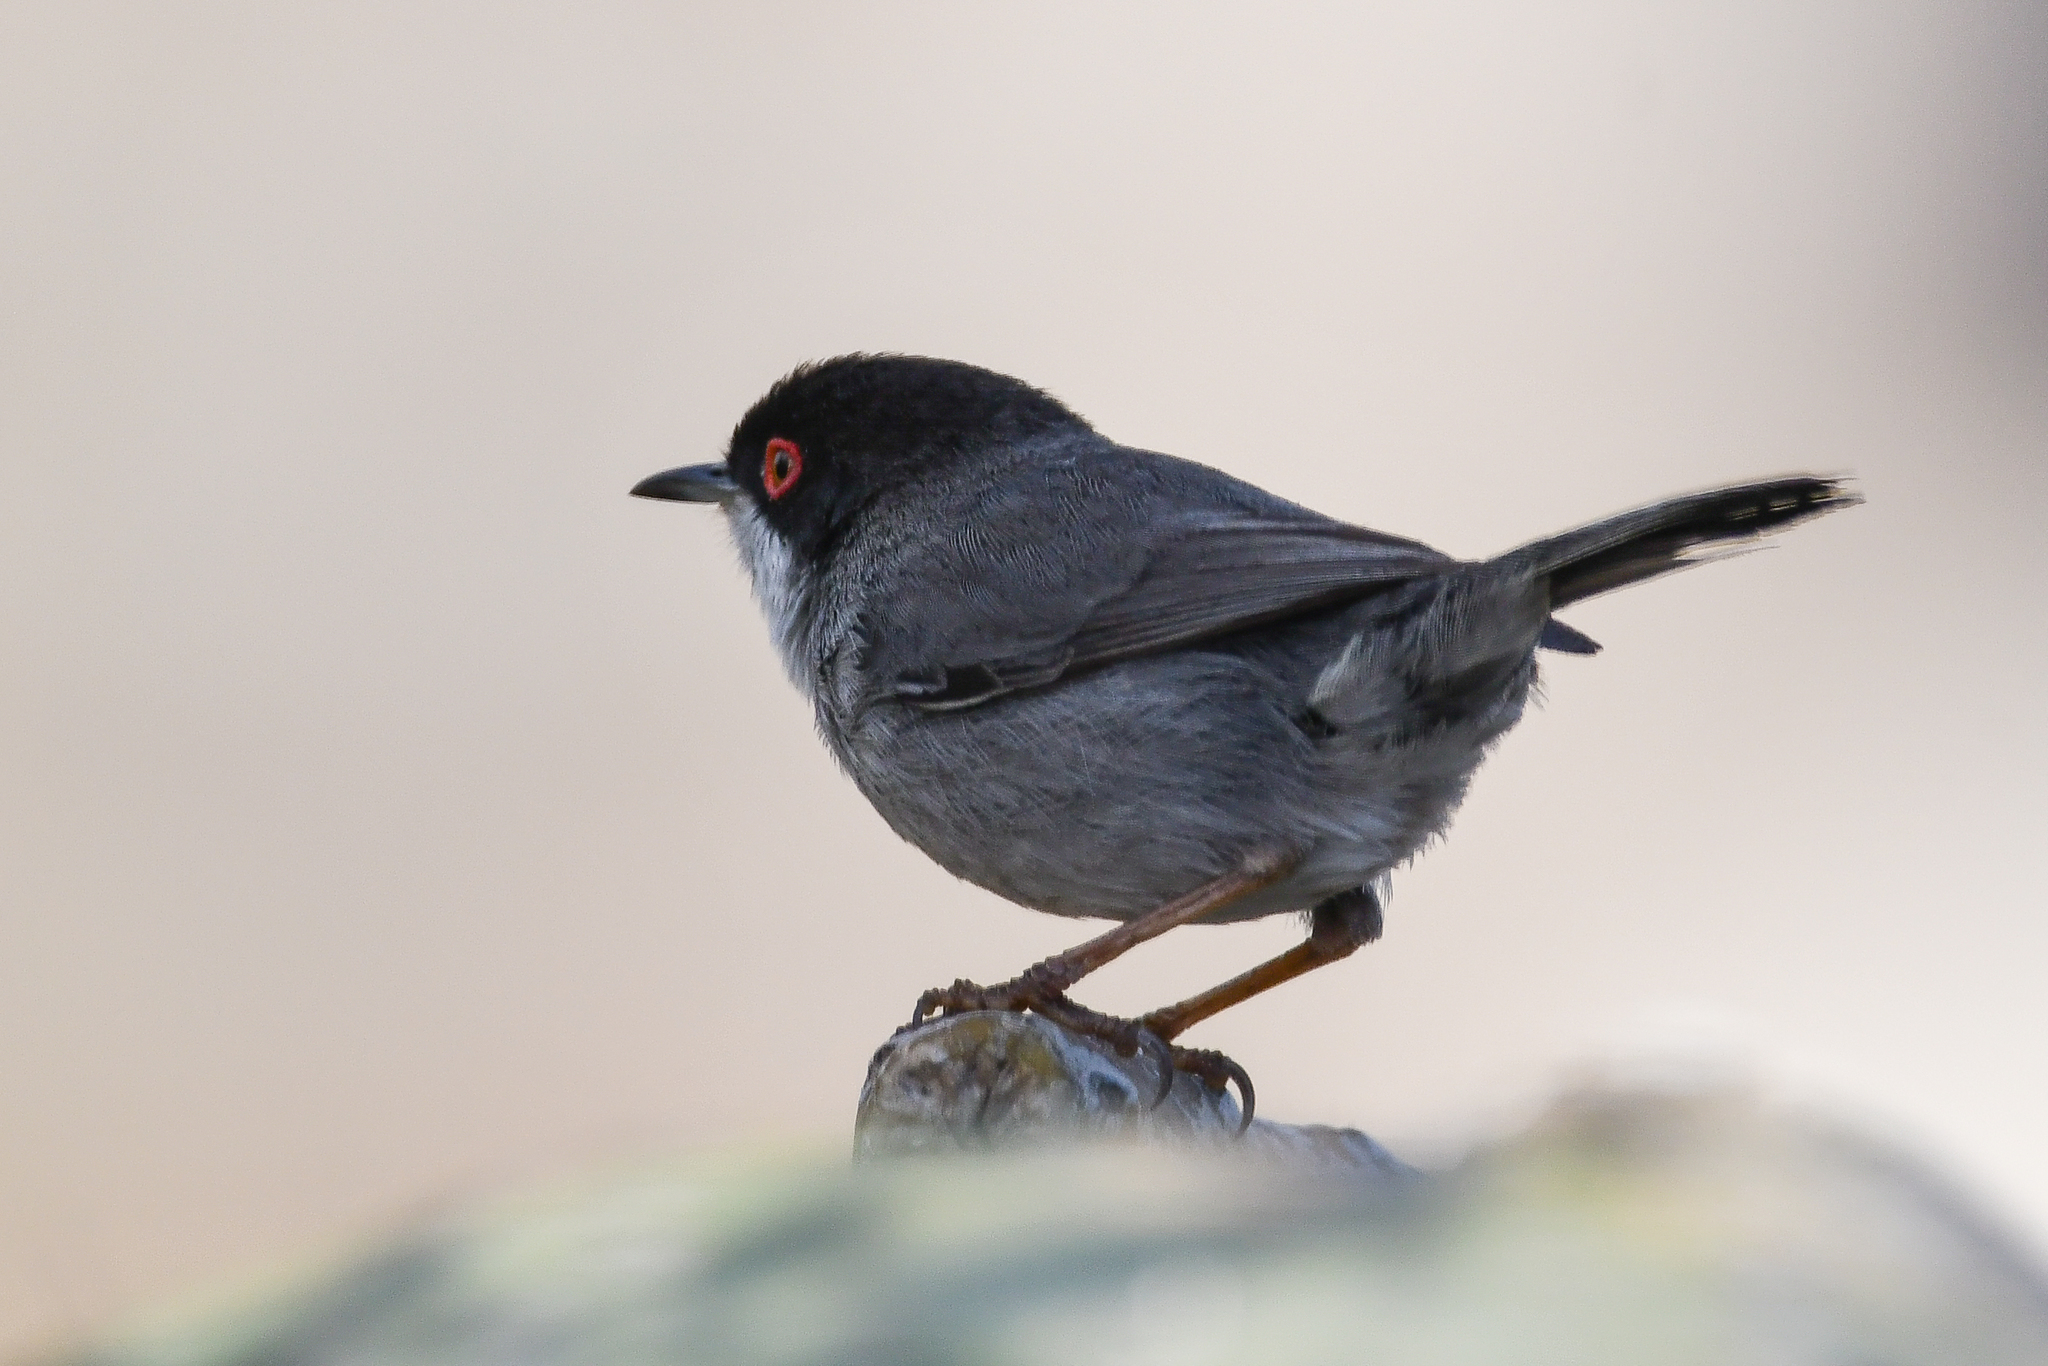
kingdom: Animalia
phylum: Chordata
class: Aves
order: Passeriformes
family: Sylviidae
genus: Curruca
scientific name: Curruca melanocephala
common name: Sardinian warbler
